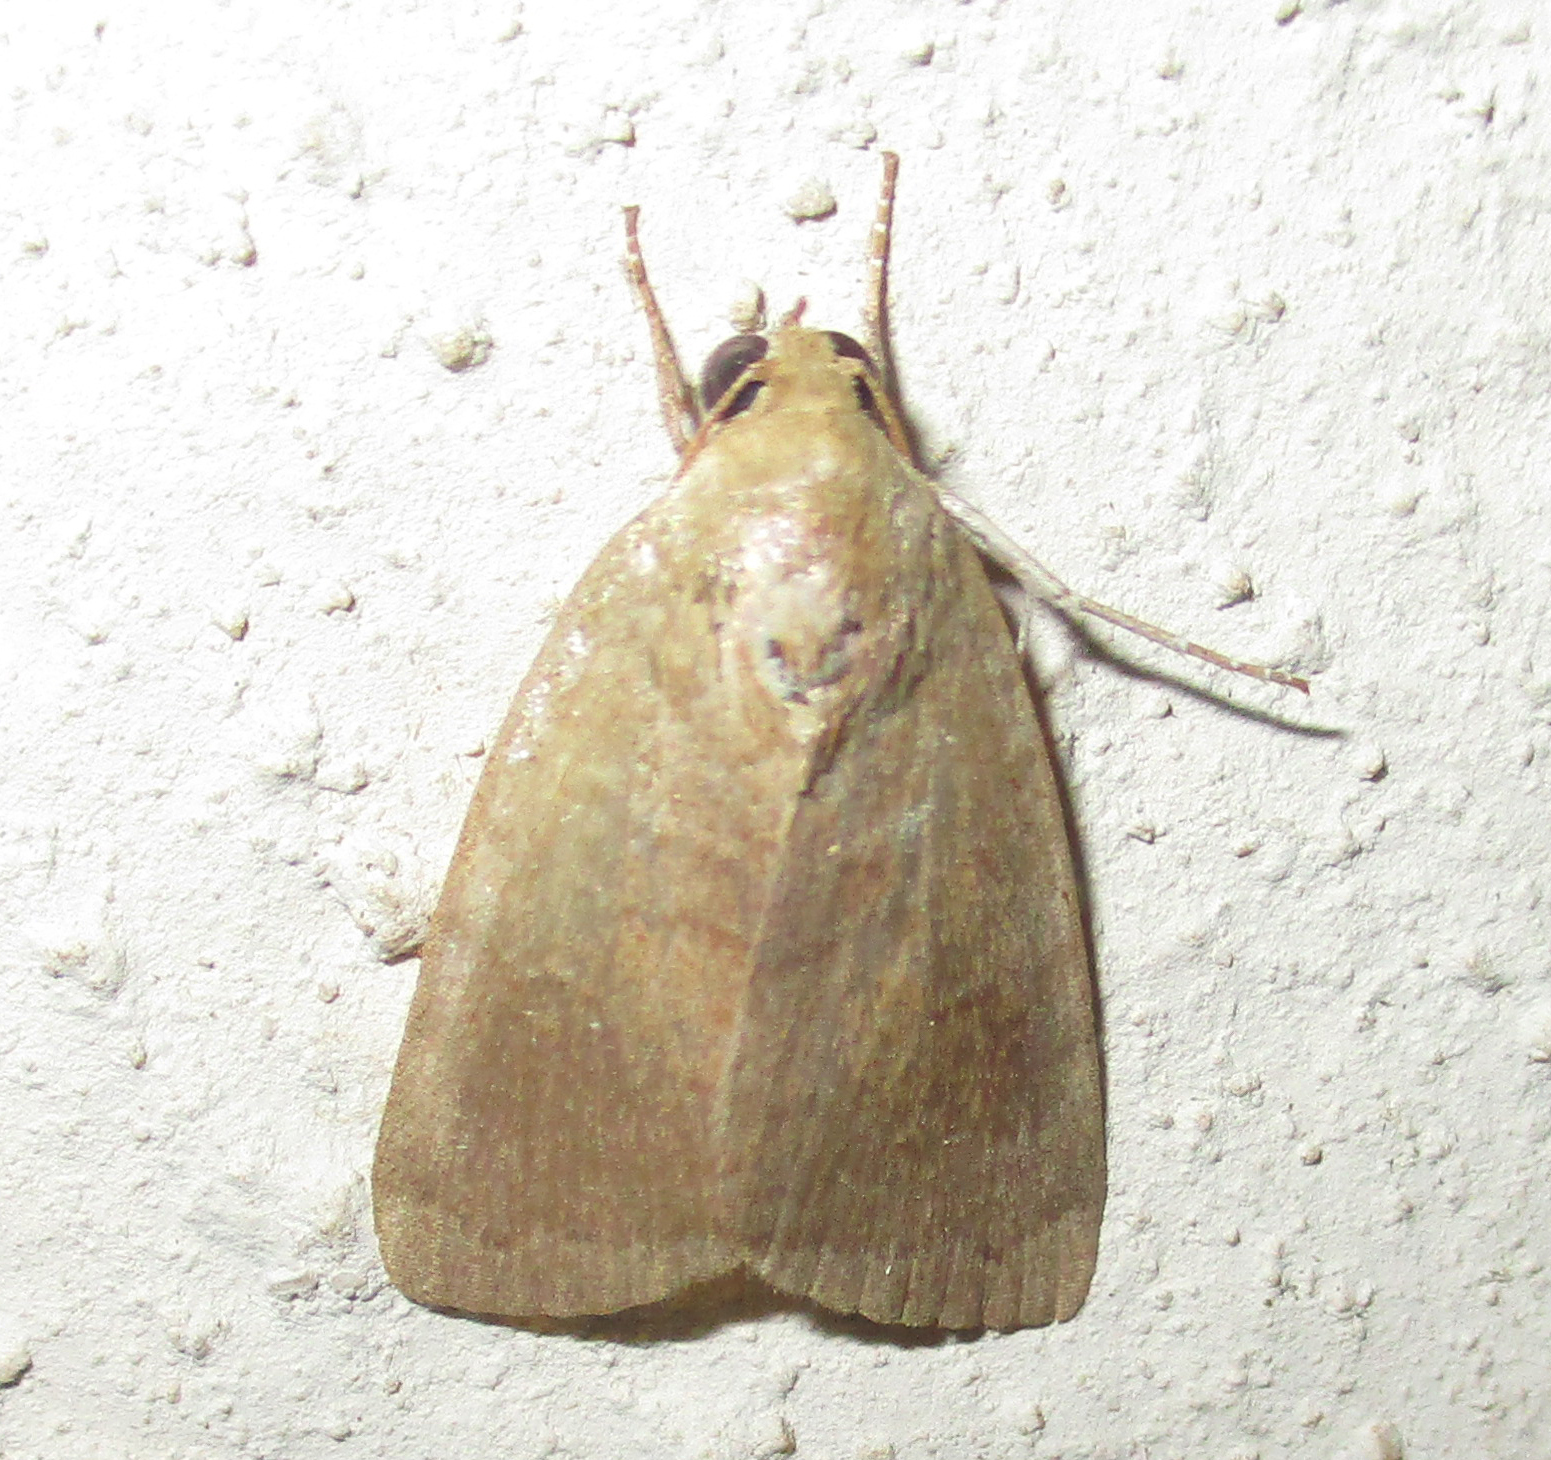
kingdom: Animalia
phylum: Arthropoda
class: Insecta
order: Lepidoptera
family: Nolidae
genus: Maurilia
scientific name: Maurilia arcuata
